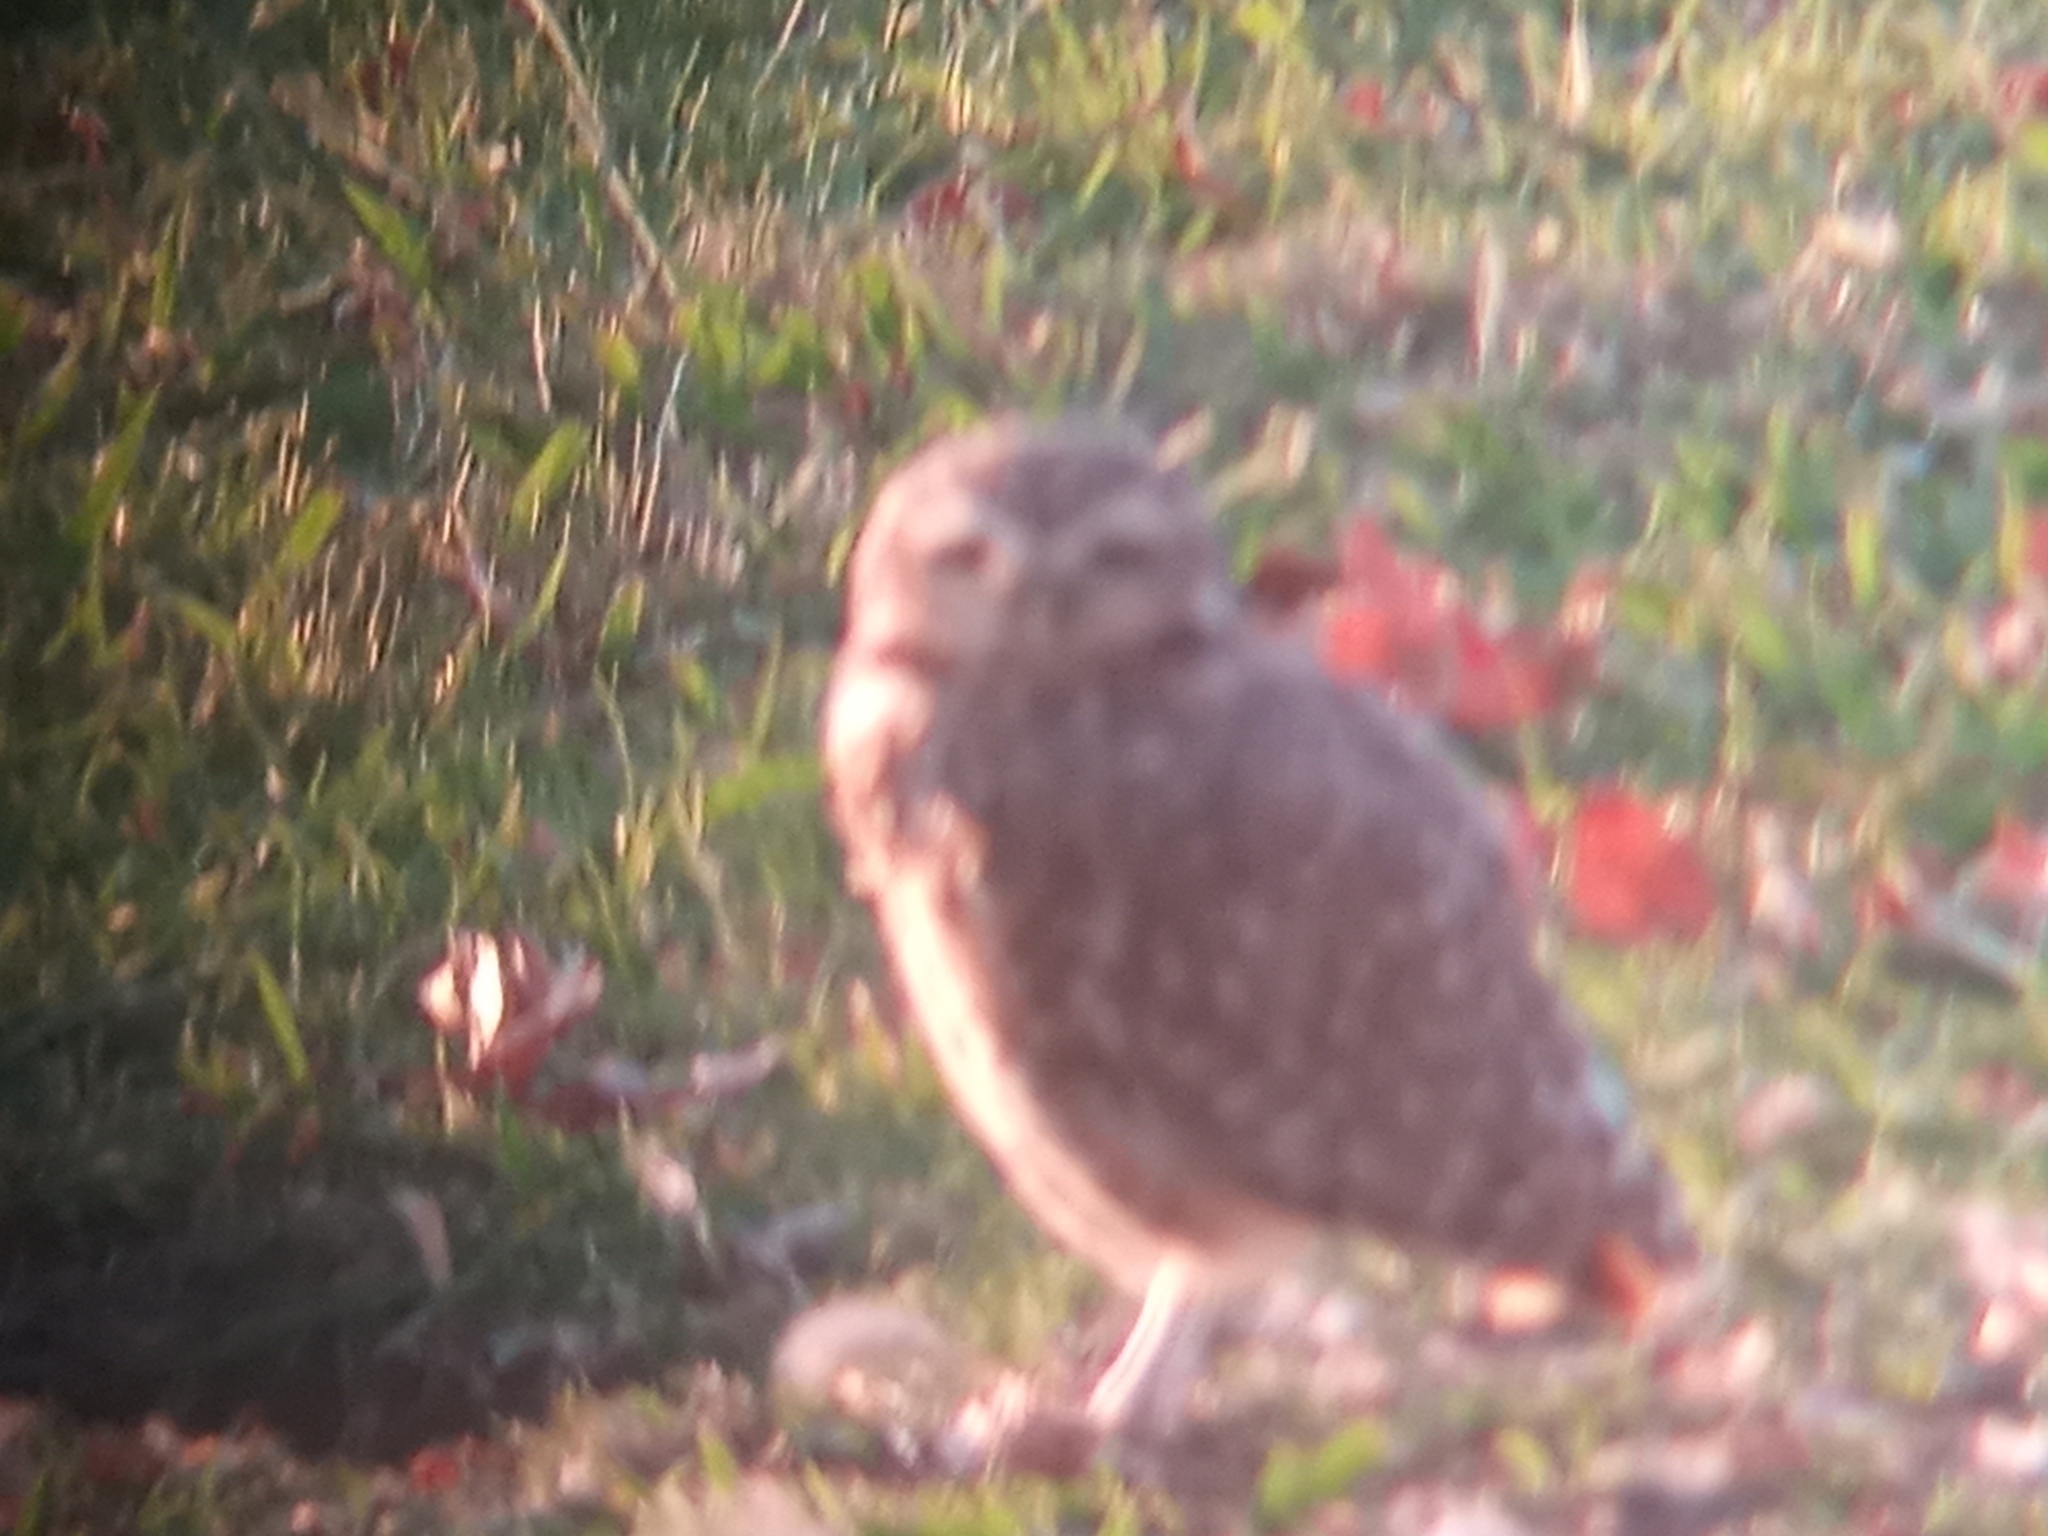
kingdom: Animalia
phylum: Chordata
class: Aves
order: Strigiformes
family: Strigidae
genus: Athene
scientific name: Athene cunicularia
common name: Burrowing owl
